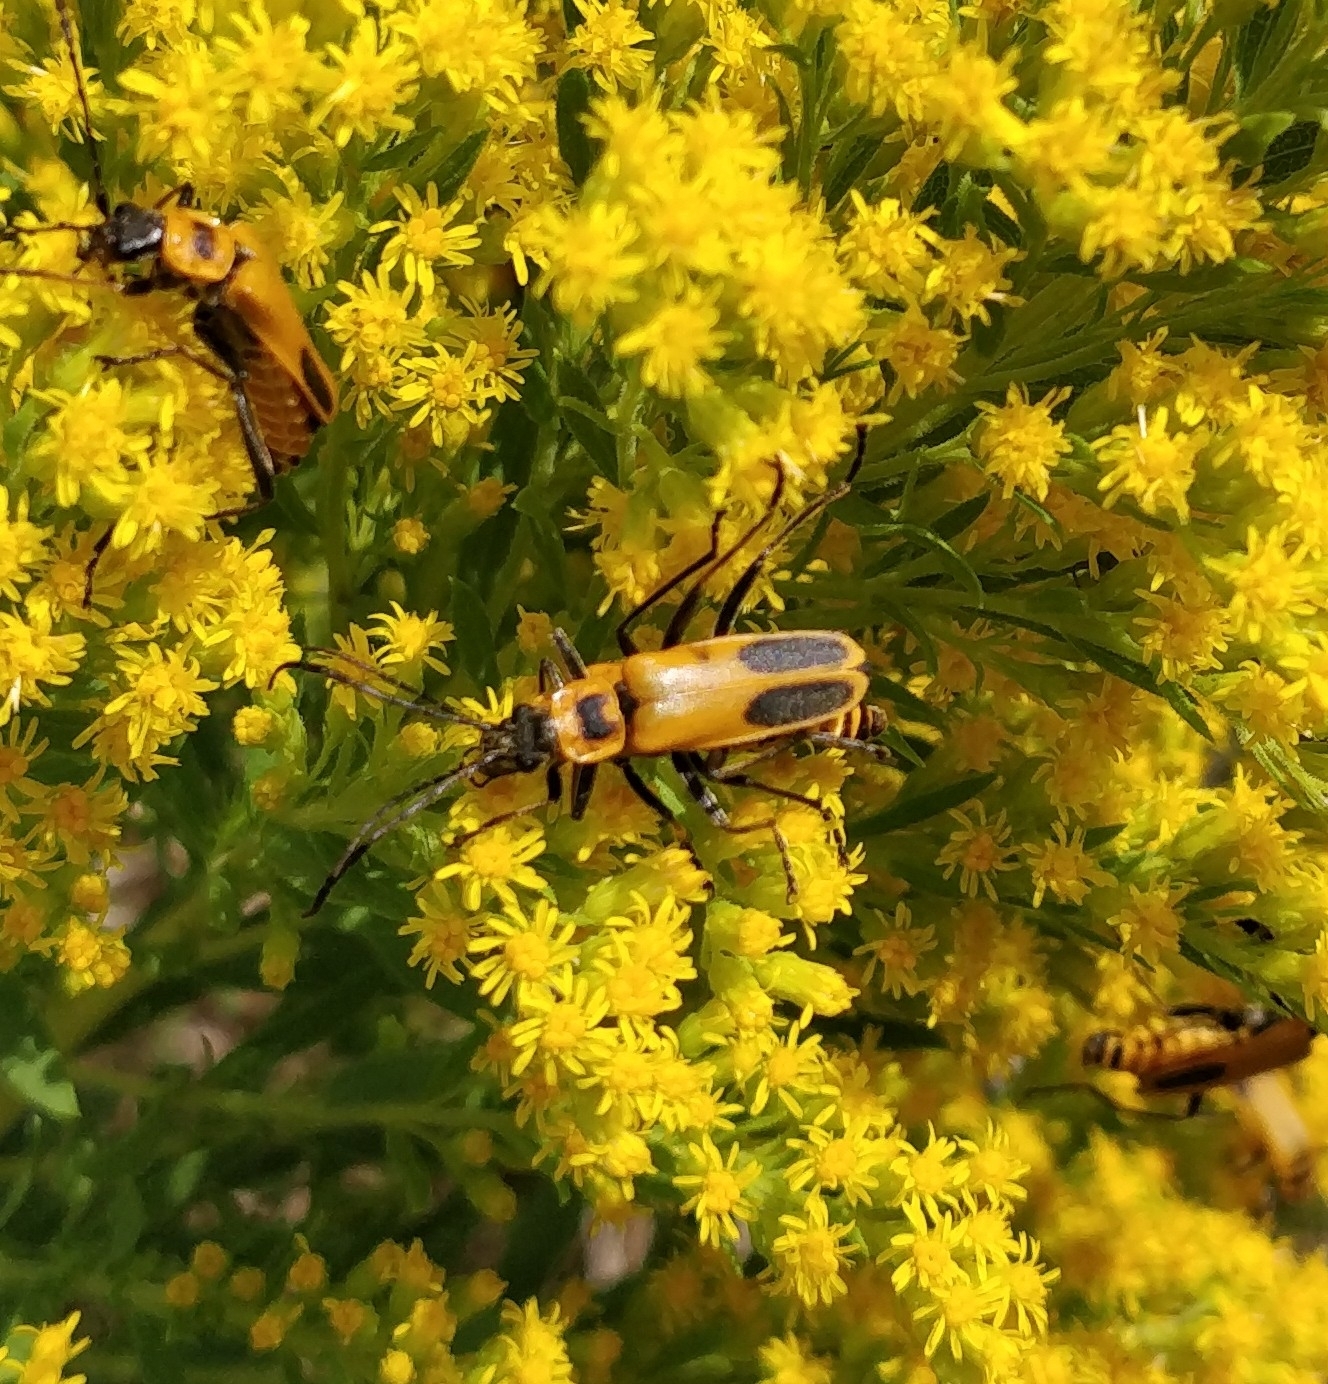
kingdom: Animalia
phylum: Arthropoda
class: Insecta
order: Coleoptera
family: Cantharidae
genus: Chauliognathus
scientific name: Chauliognathus pensylvanicus
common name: Goldenrod soldier beetle
